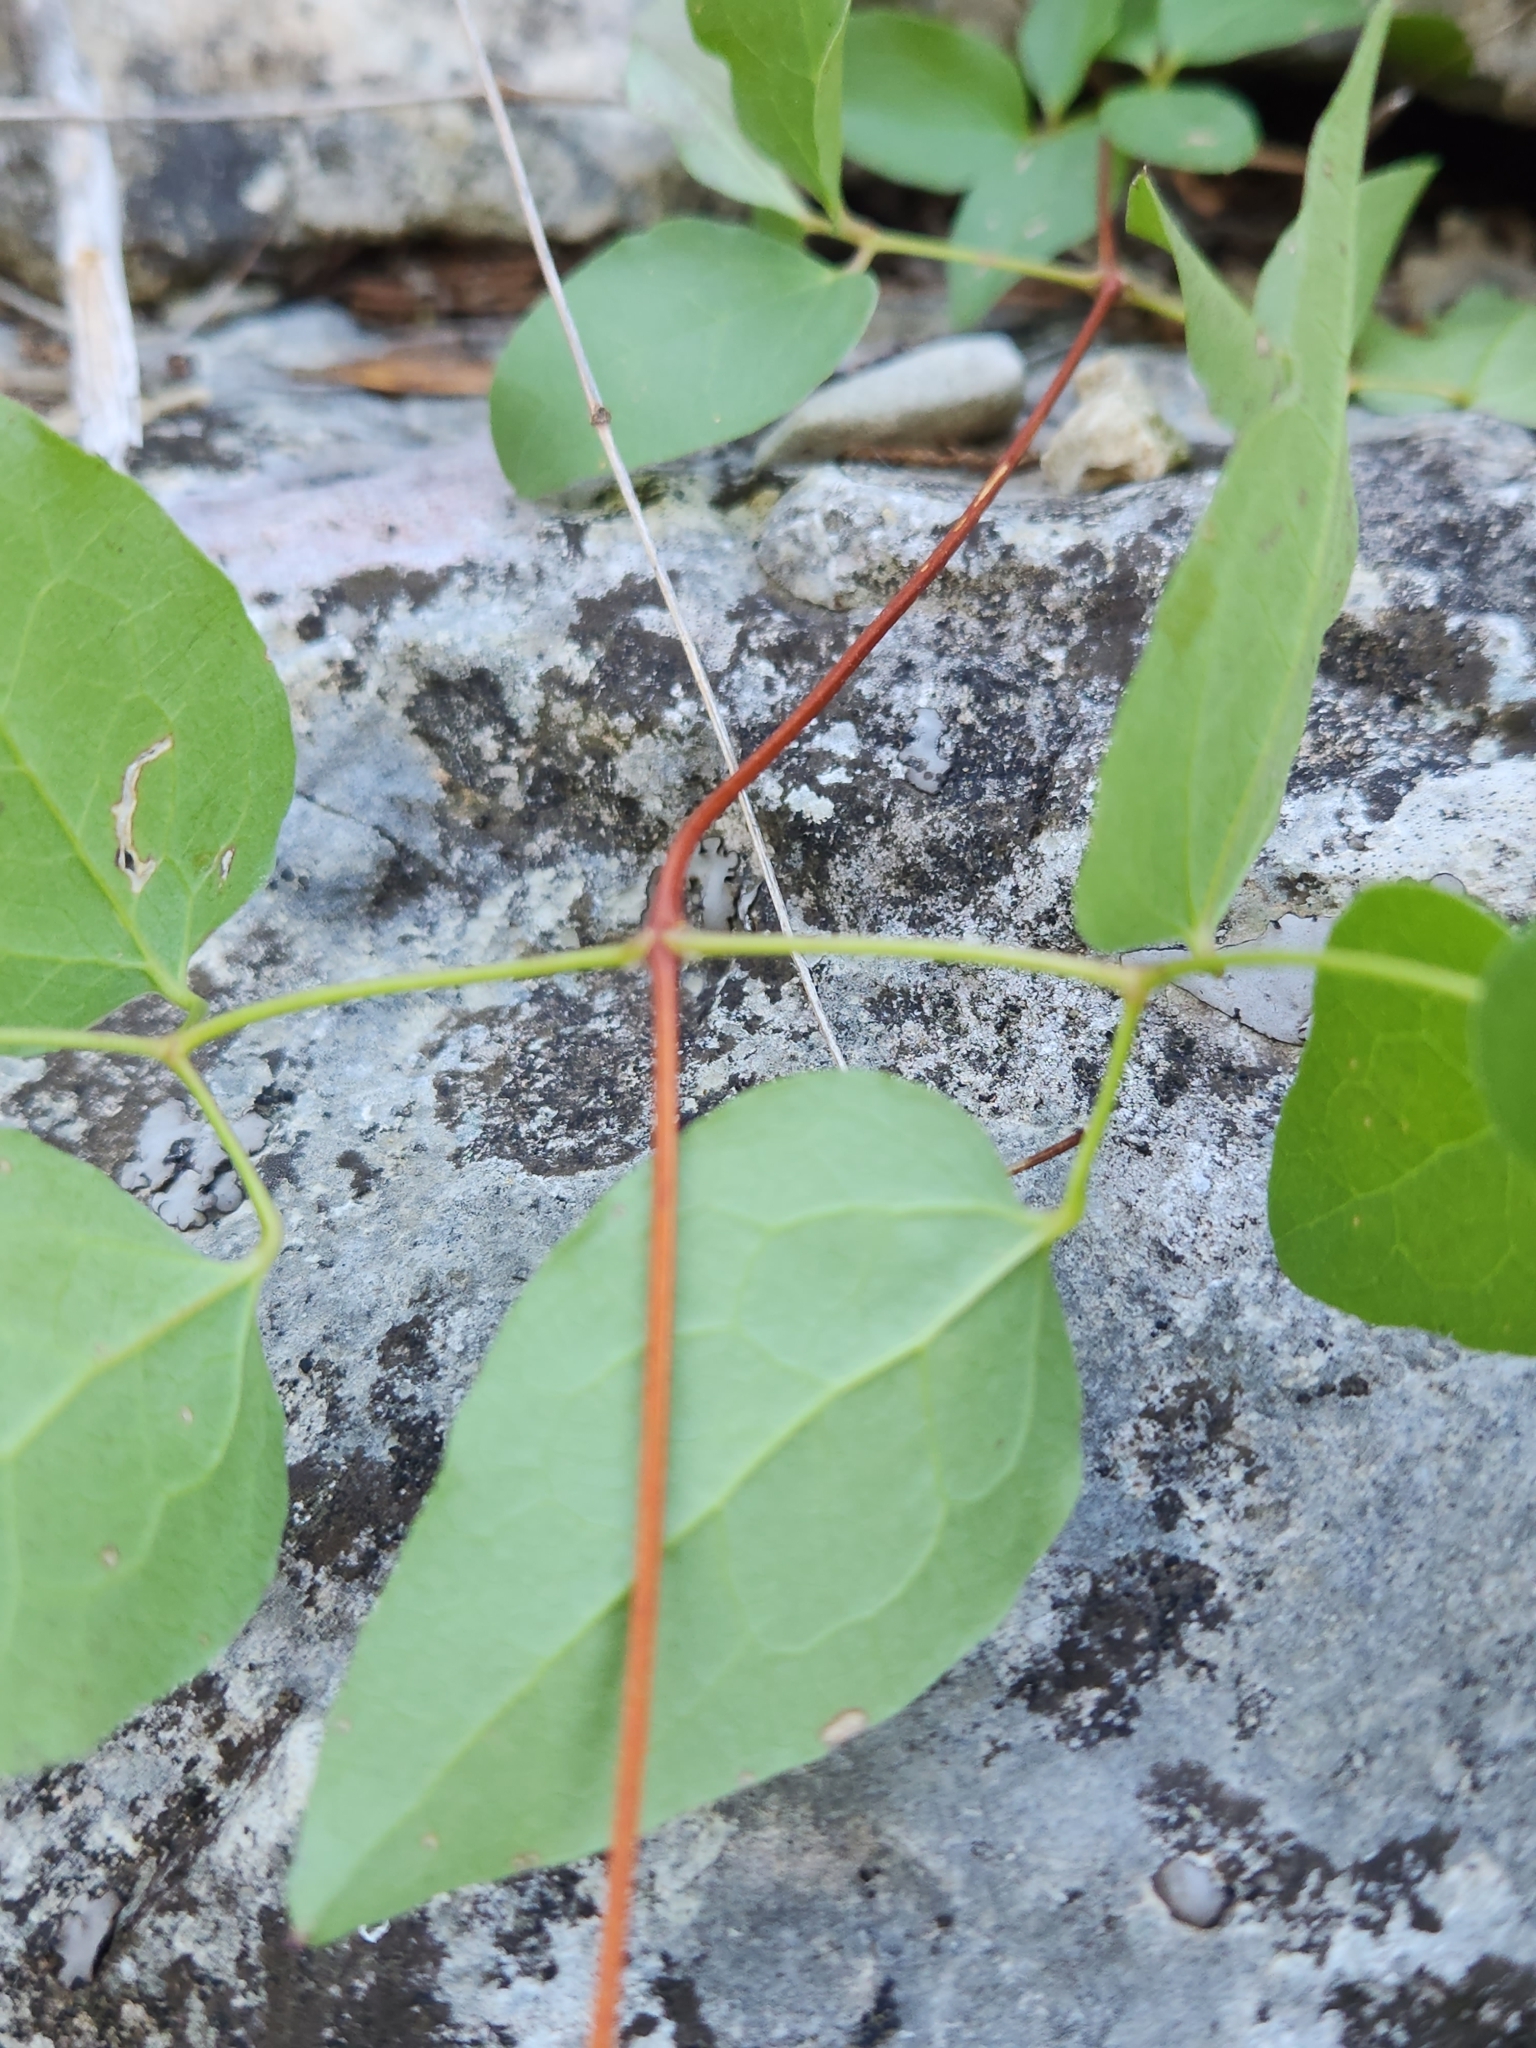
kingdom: Plantae
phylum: Tracheophyta
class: Magnoliopsida
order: Ranunculales
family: Ranunculaceae
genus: Clematis
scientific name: Clematis pitcheri
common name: Bellflower clematis
